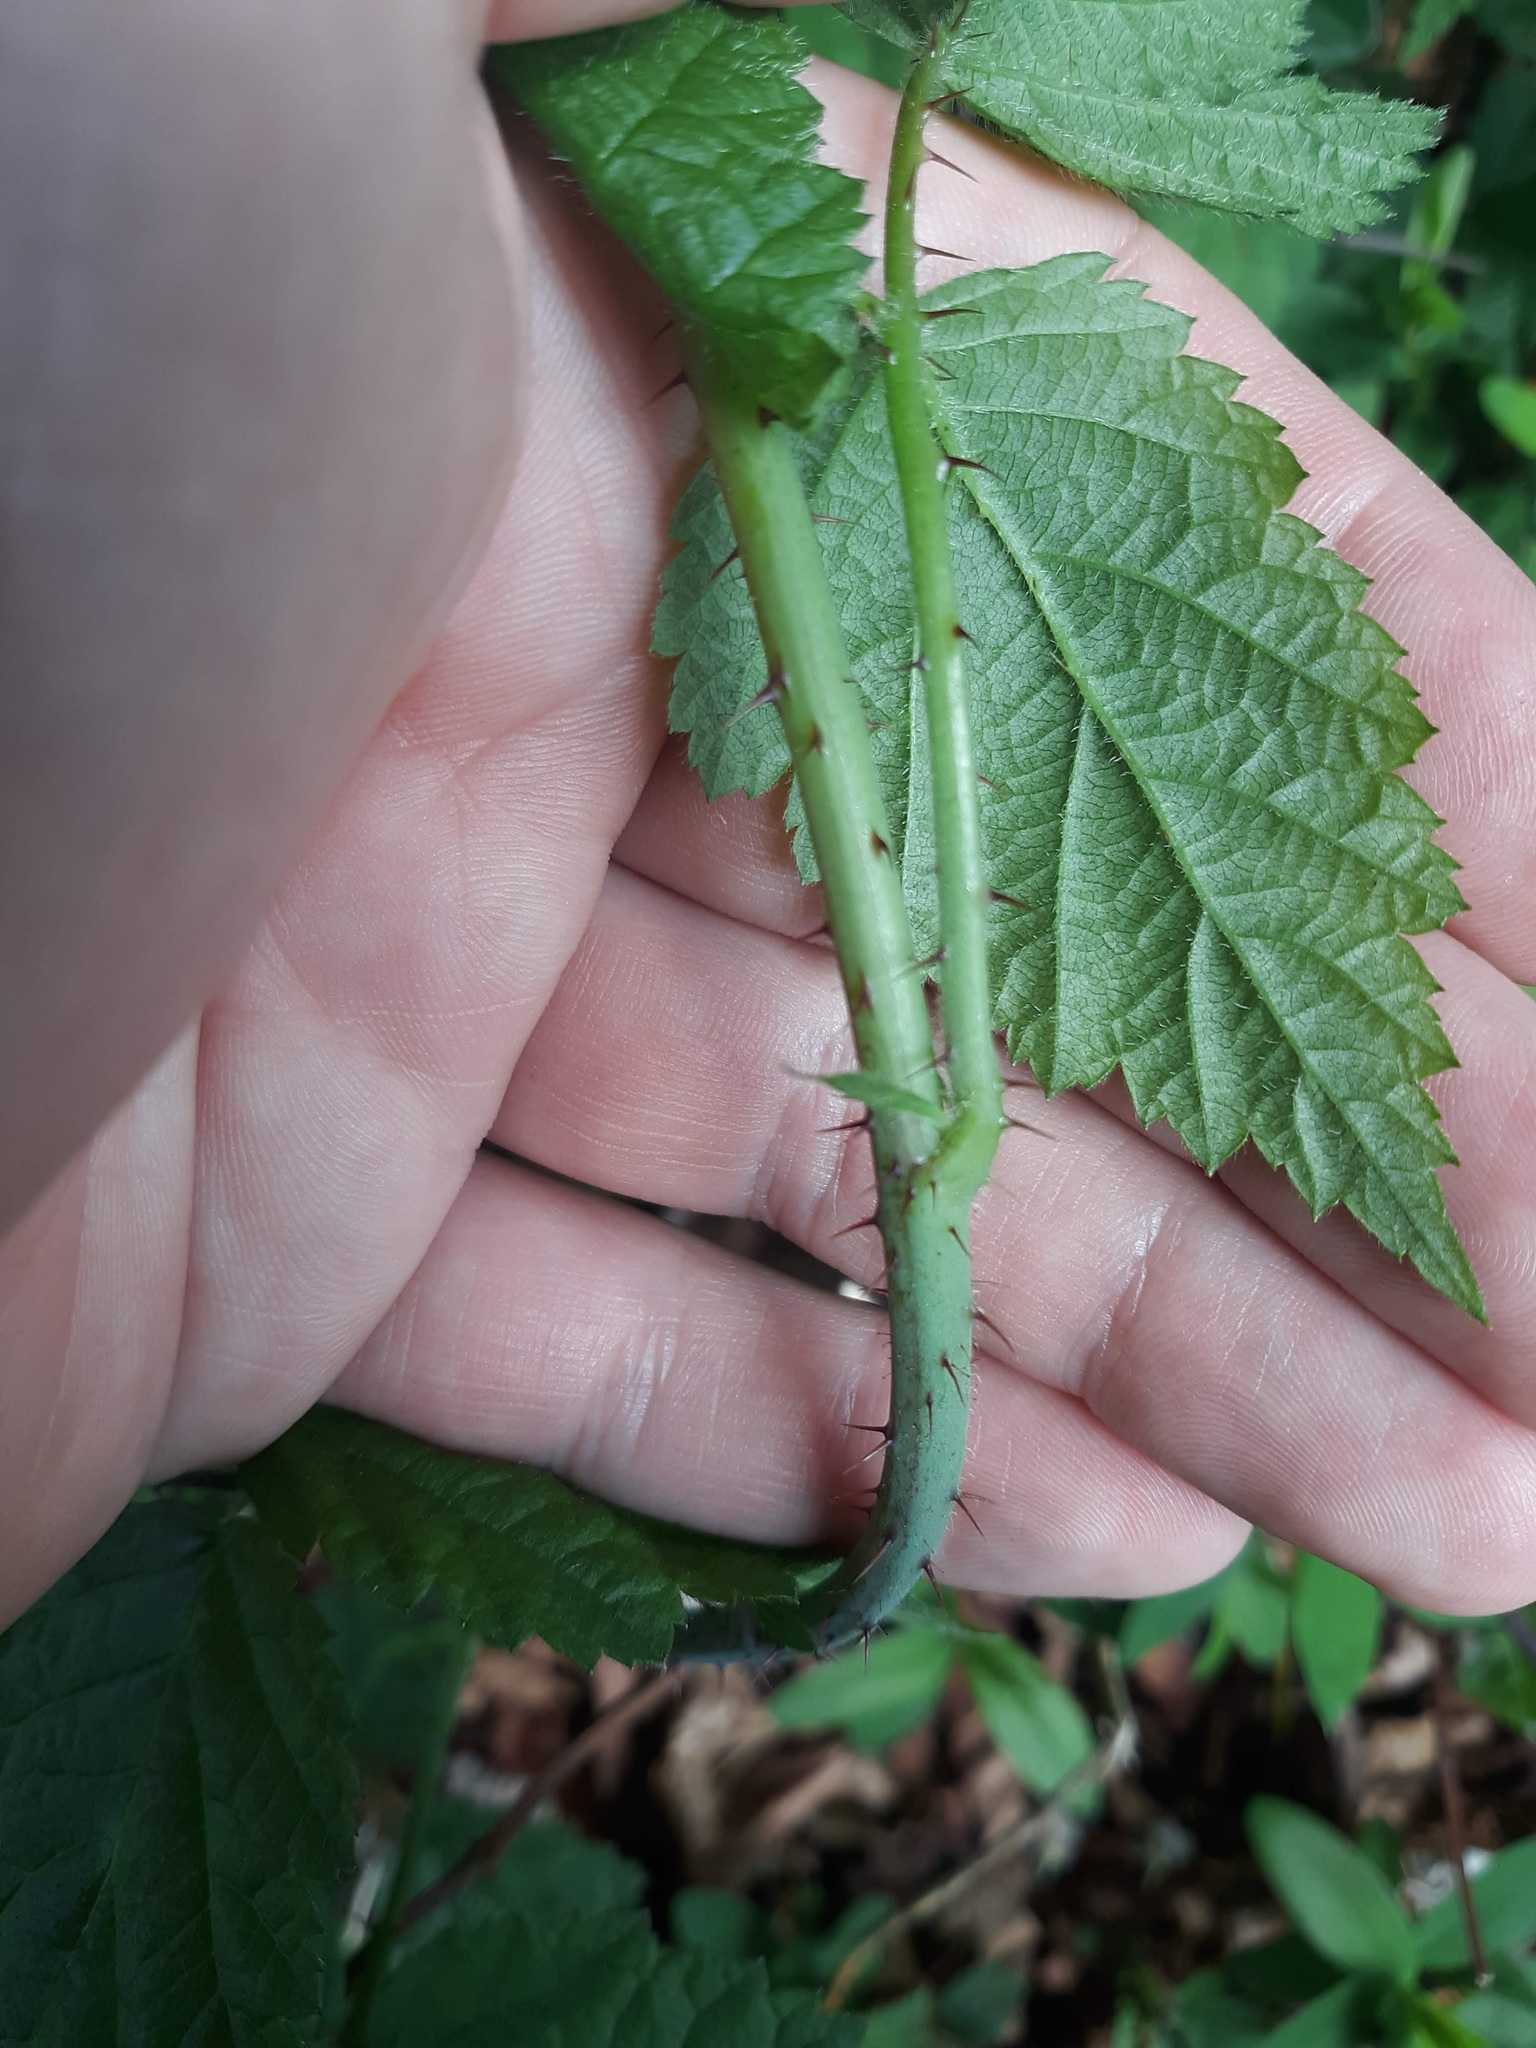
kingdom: Plantae
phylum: Tracheophyta
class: Magnoliopsida
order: Rosales
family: Rosaceae
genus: Rubus
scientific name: Rubus ursinus
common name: Pacific blackberry
